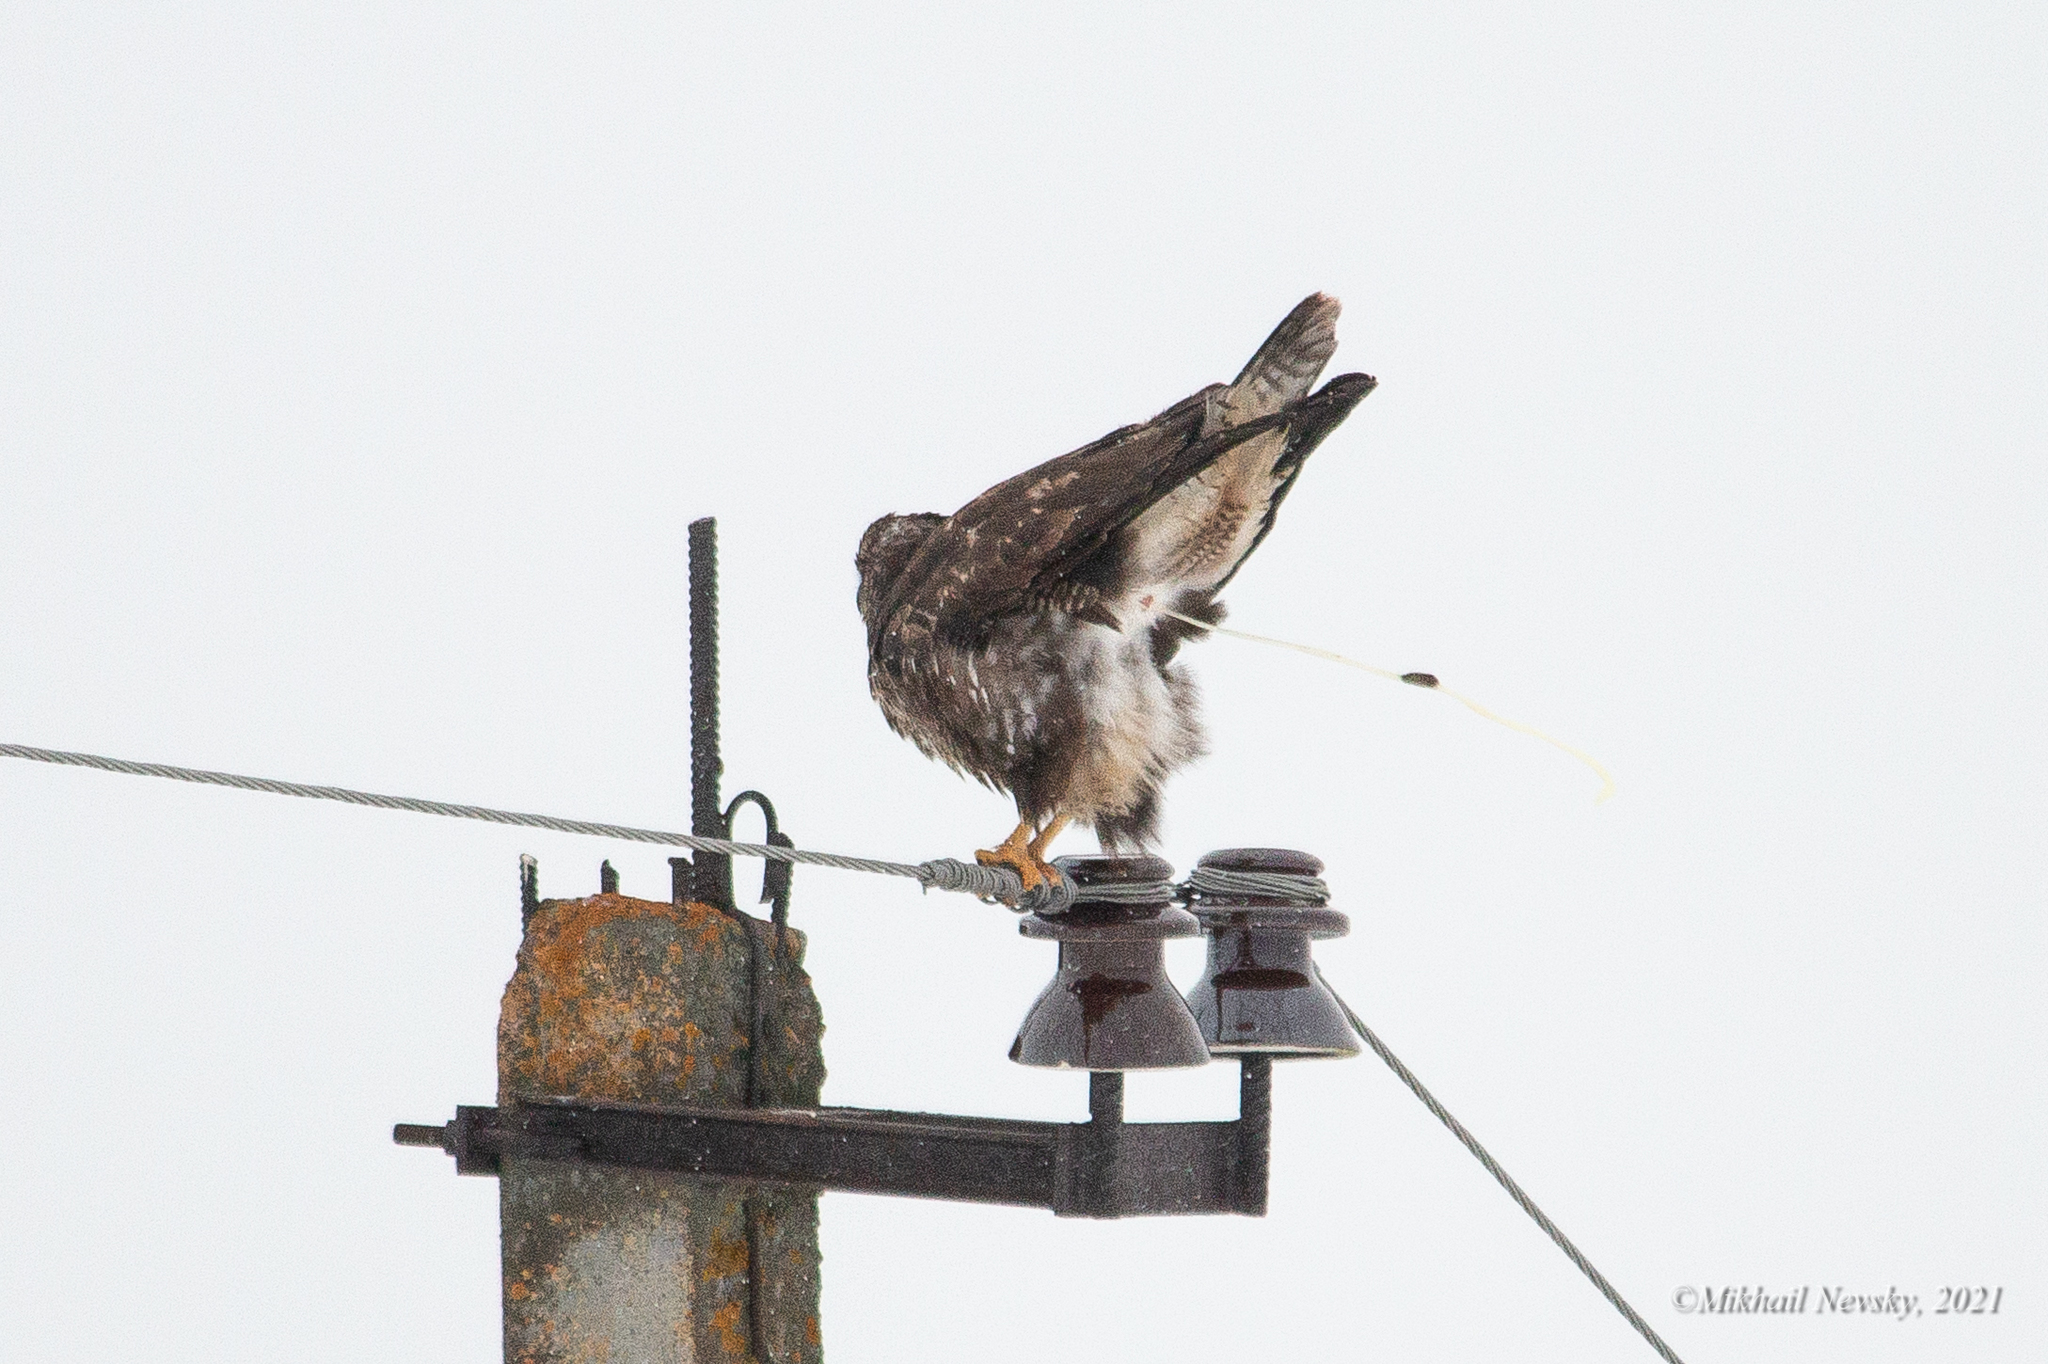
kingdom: Animalia
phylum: Chordata
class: Aves
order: Accipitriformes
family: Accipitridae
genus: Buteo
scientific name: Buteo buteo
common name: Common buzzard
